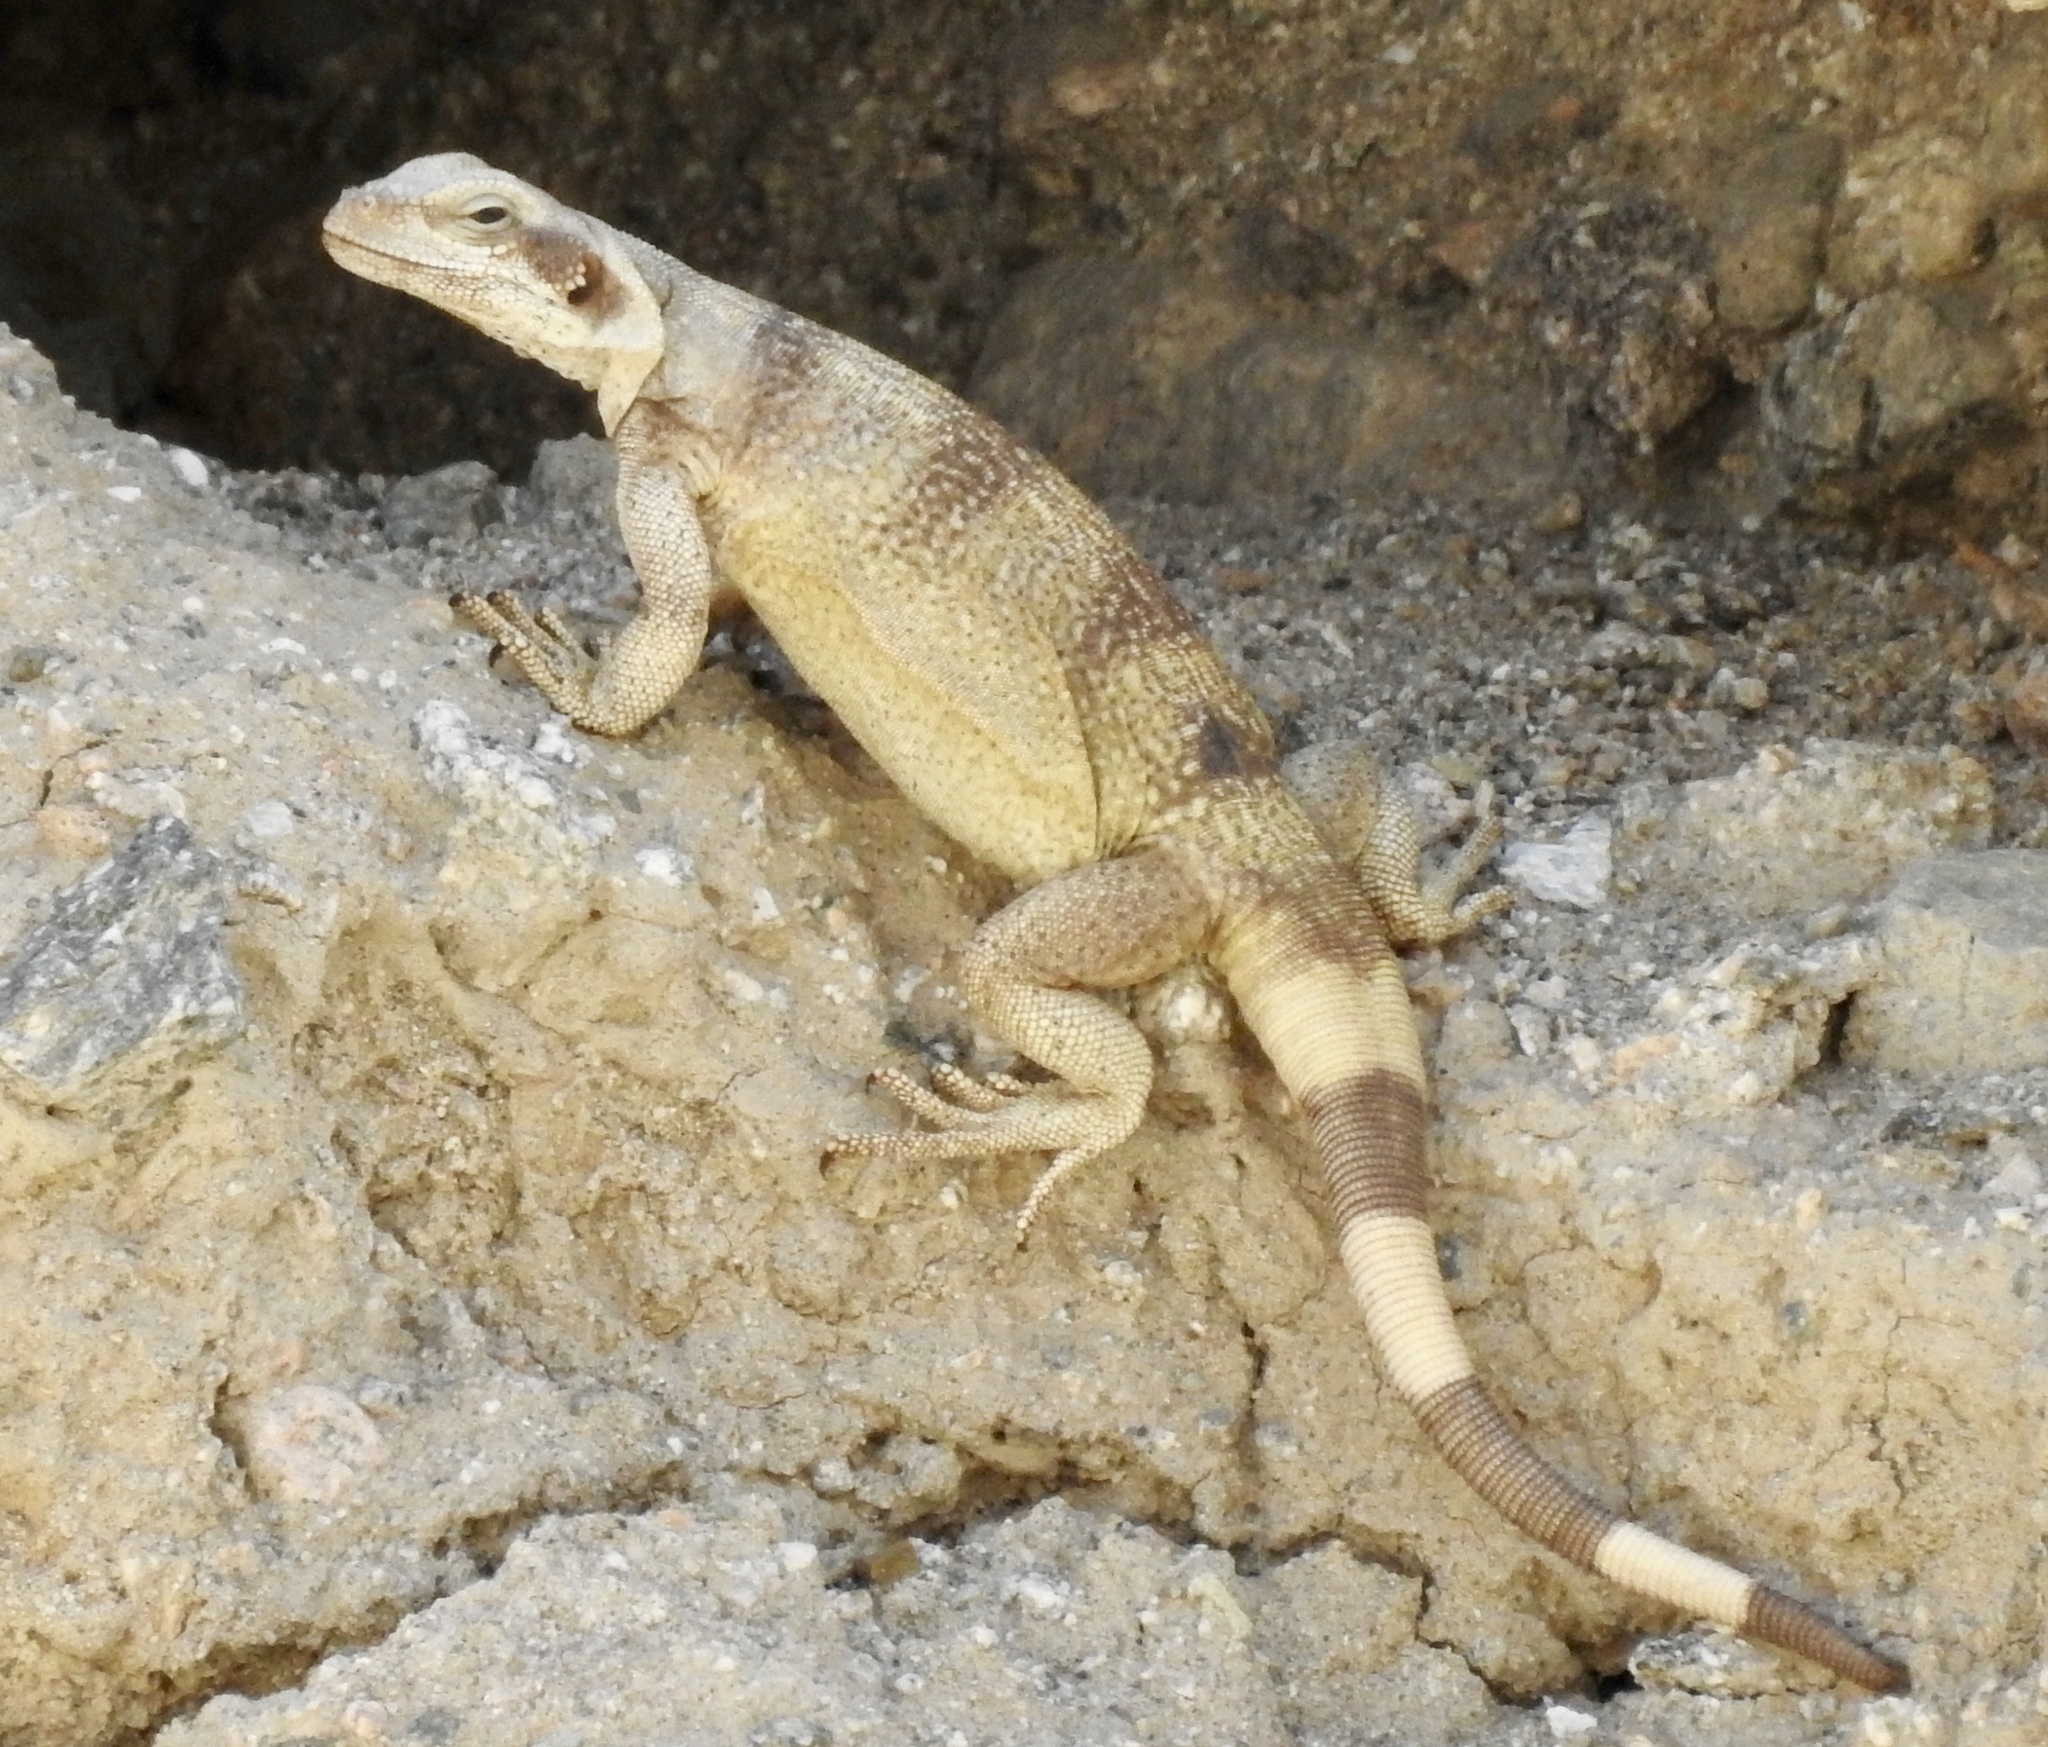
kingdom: Animalia
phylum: Chordata
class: Squamata
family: Iguanidae
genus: Sauromalus
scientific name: Sauromalus ater
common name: Northern chuckwalla
